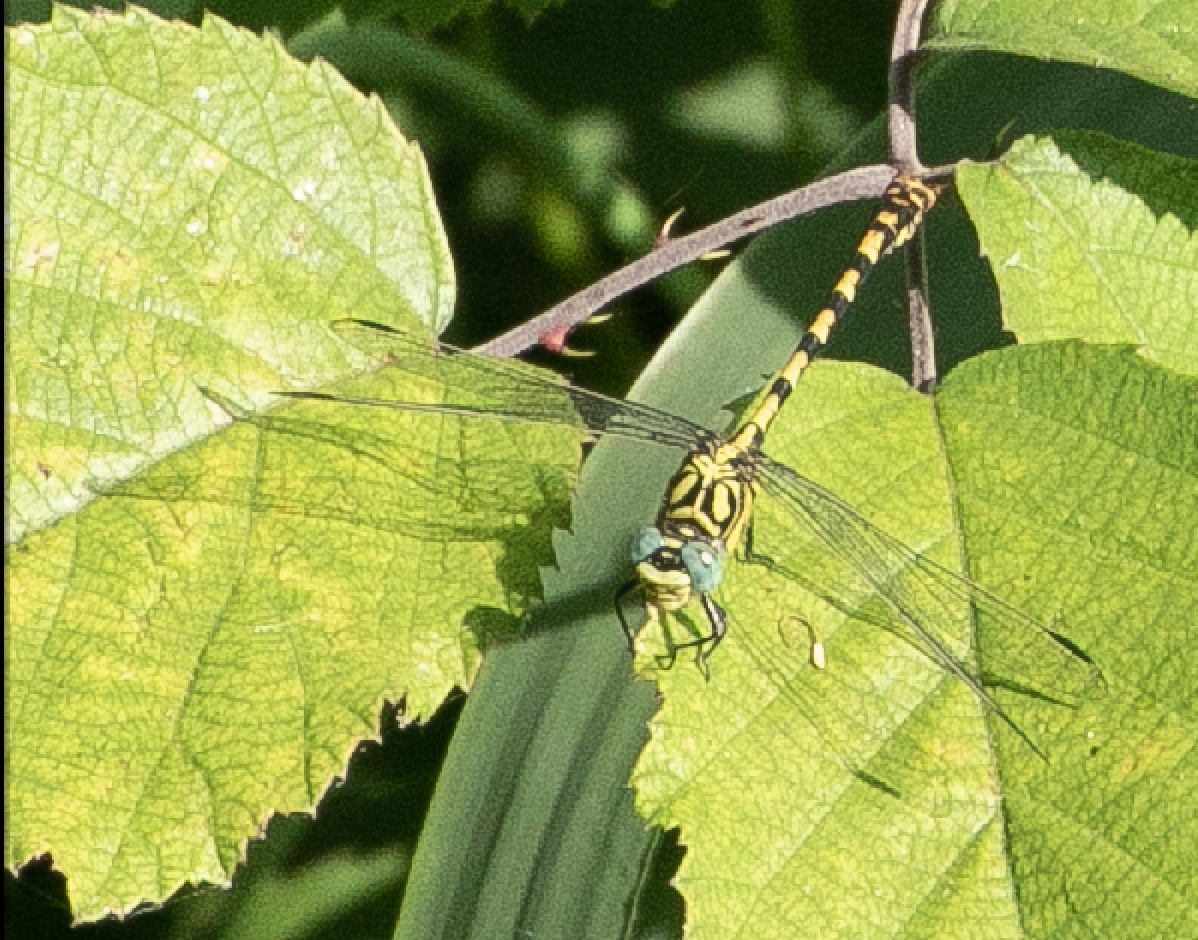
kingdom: Animalia
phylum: Arthropoda
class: Insecta
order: Odonata
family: Gomphidae
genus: Onychogomphus
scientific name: Onychogomphus forcipatus
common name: Small pincertail
